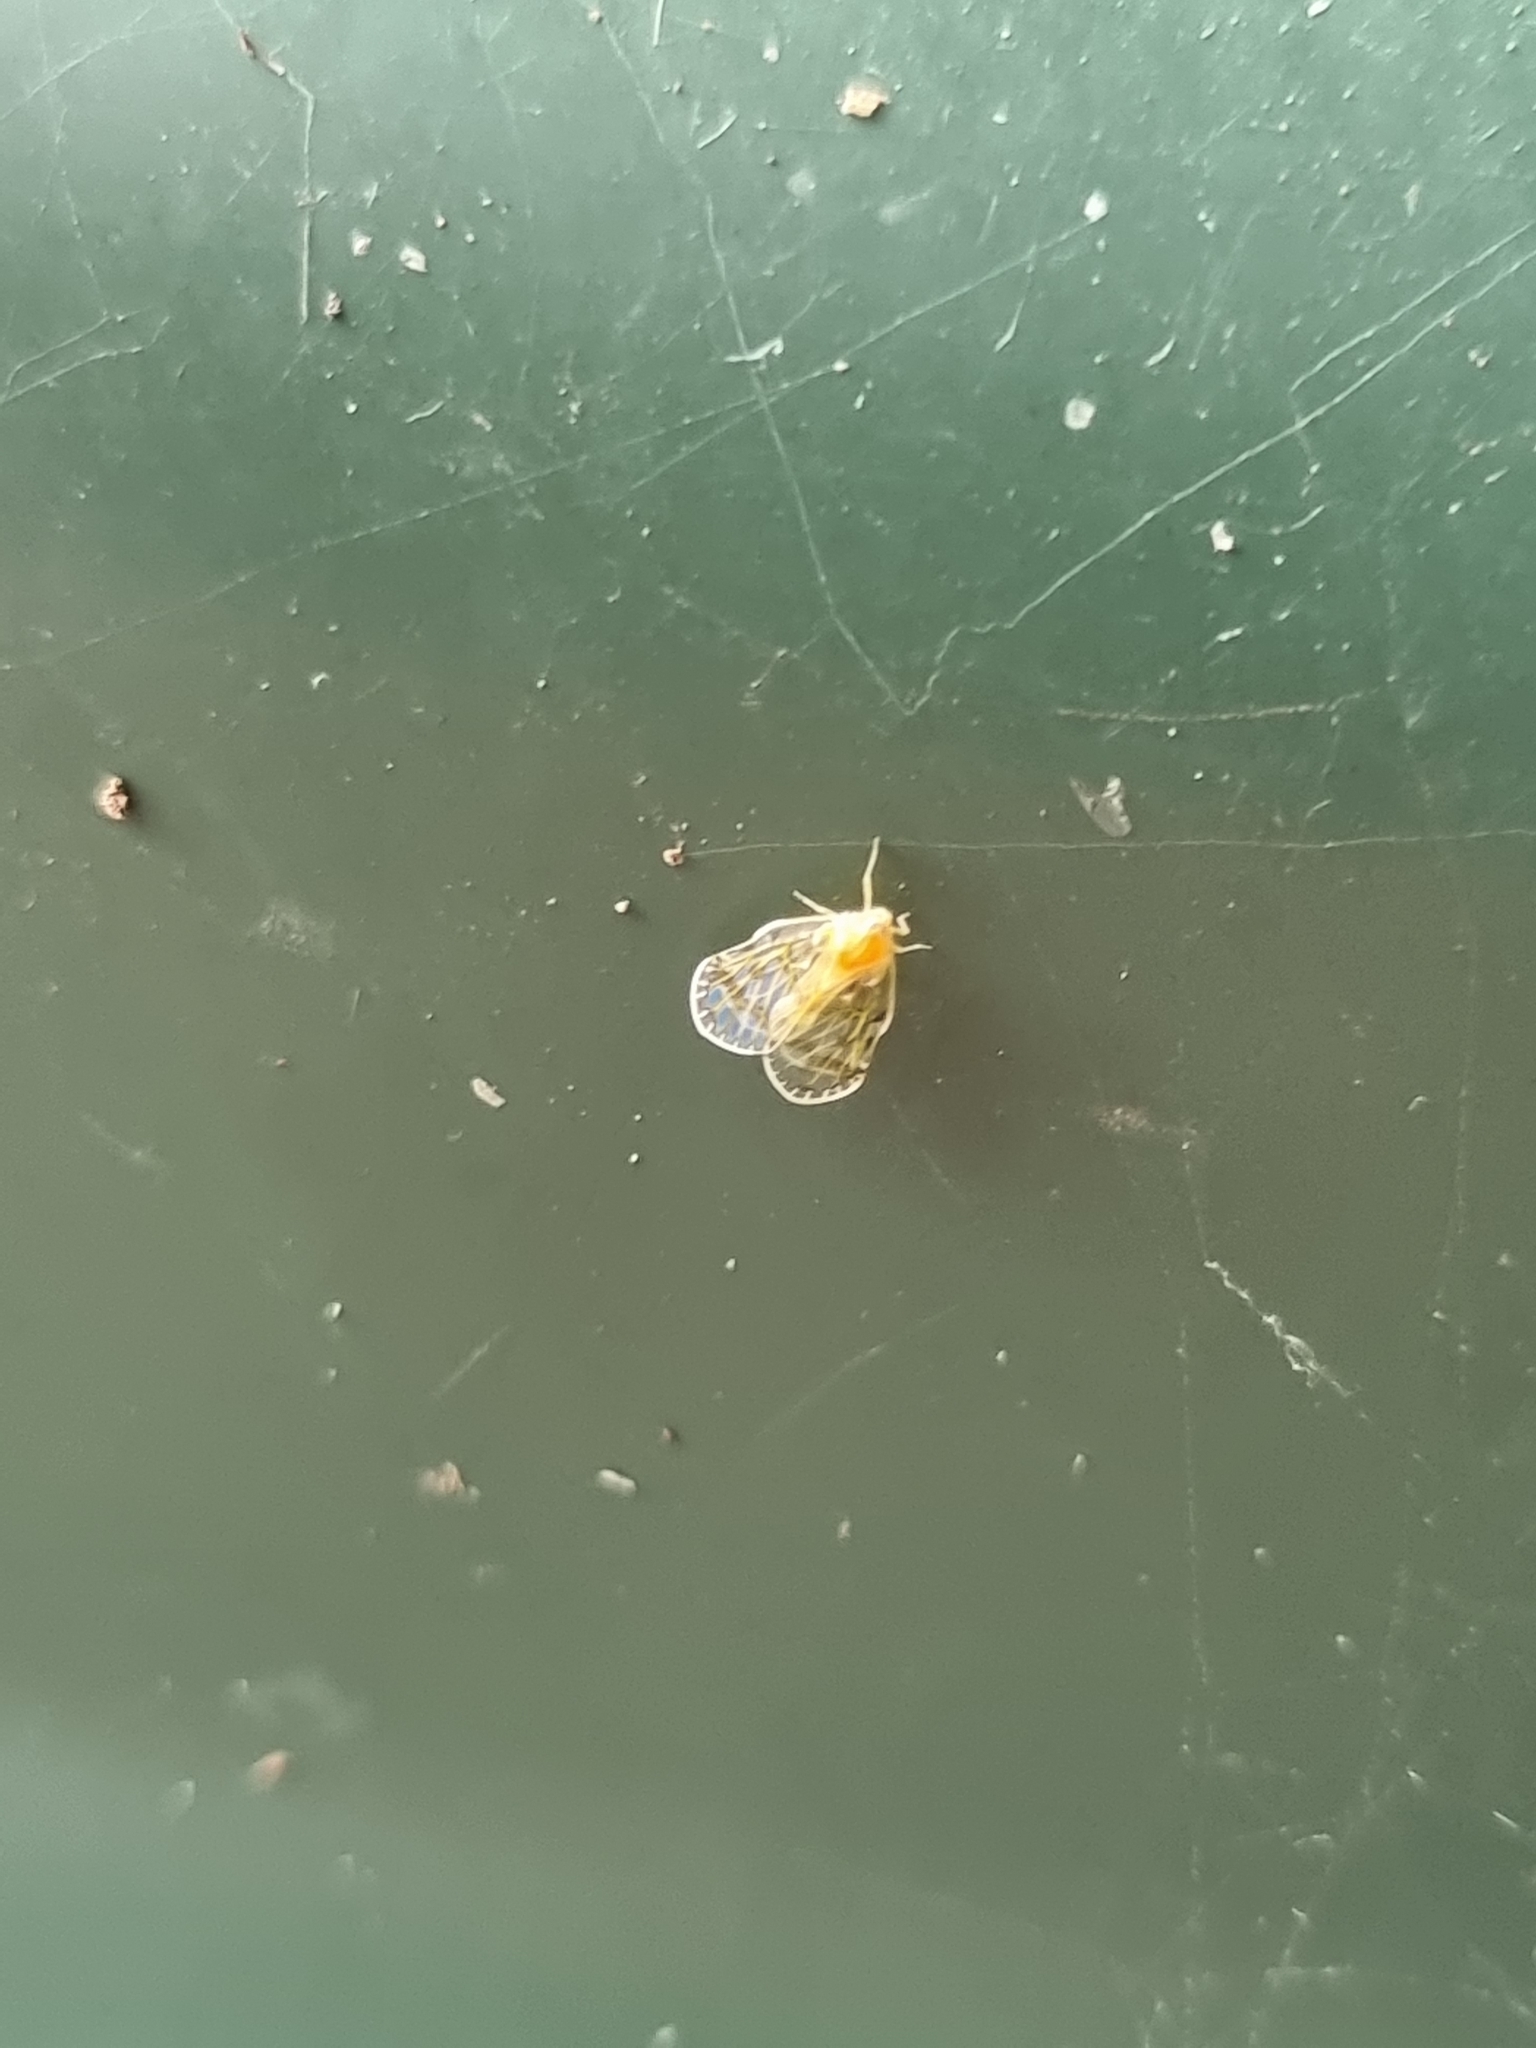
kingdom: Animalia
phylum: Arthropoda
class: Insecta
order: Hemiptera
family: Derbidae
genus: Saccharodite
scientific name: Saccharodite chrysonoe
